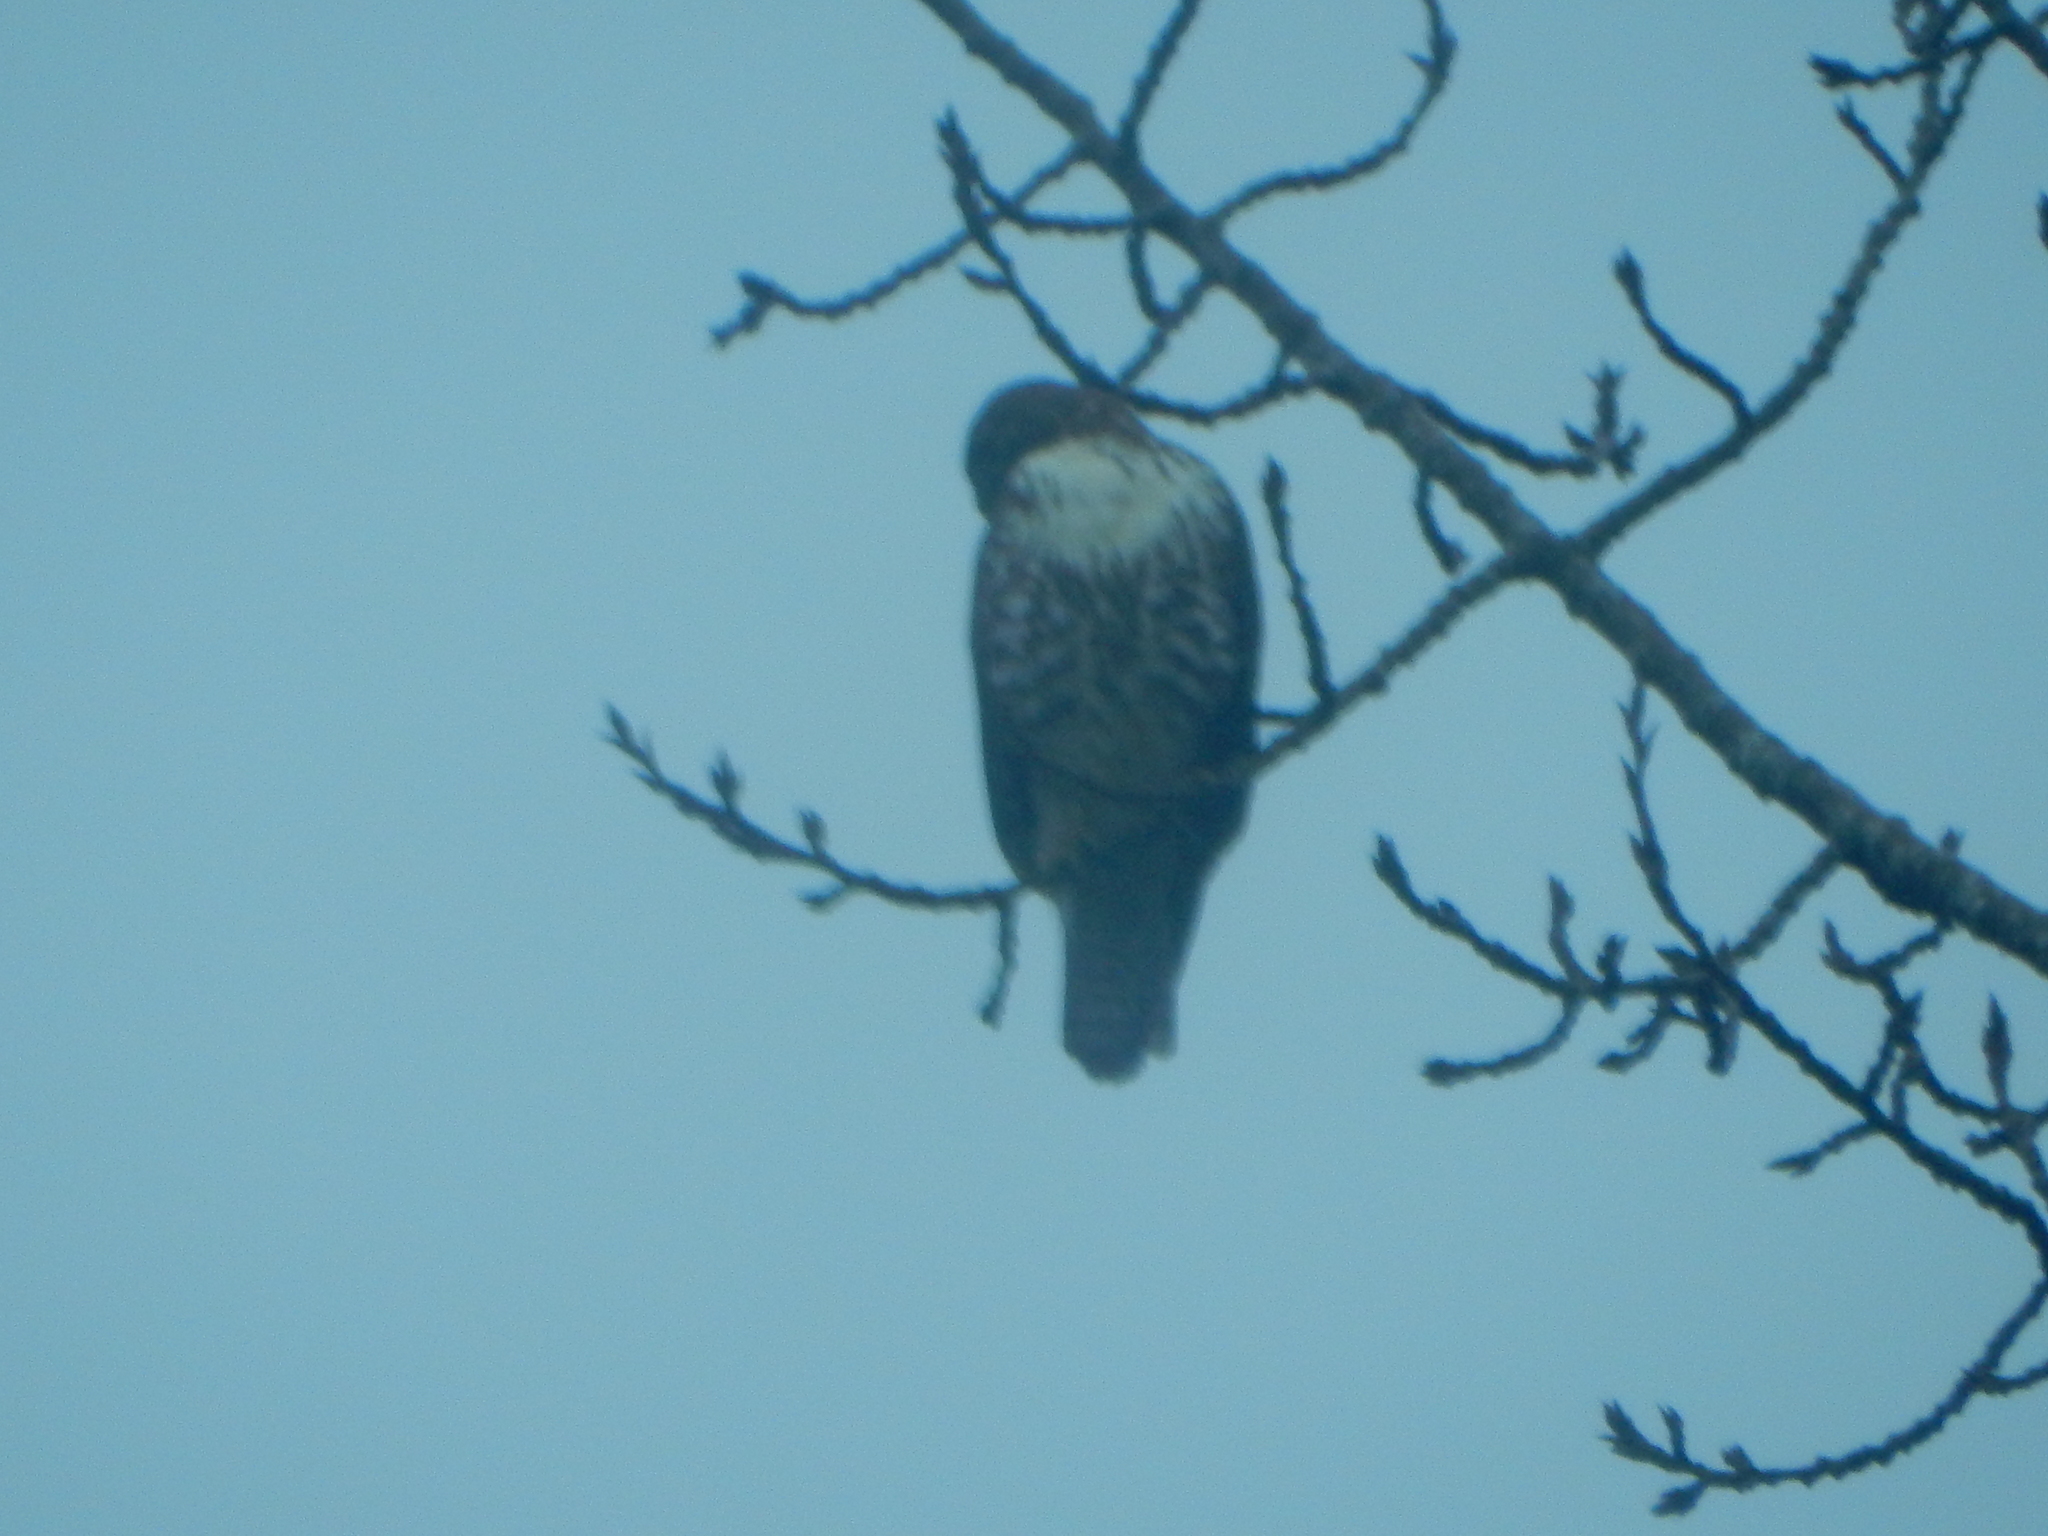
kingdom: Animalia
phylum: Chordata
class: Aves
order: Accipitriformes
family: Accipitridae
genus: Buteo
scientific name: Buteo jamaicensis
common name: Red-tailed hawk
